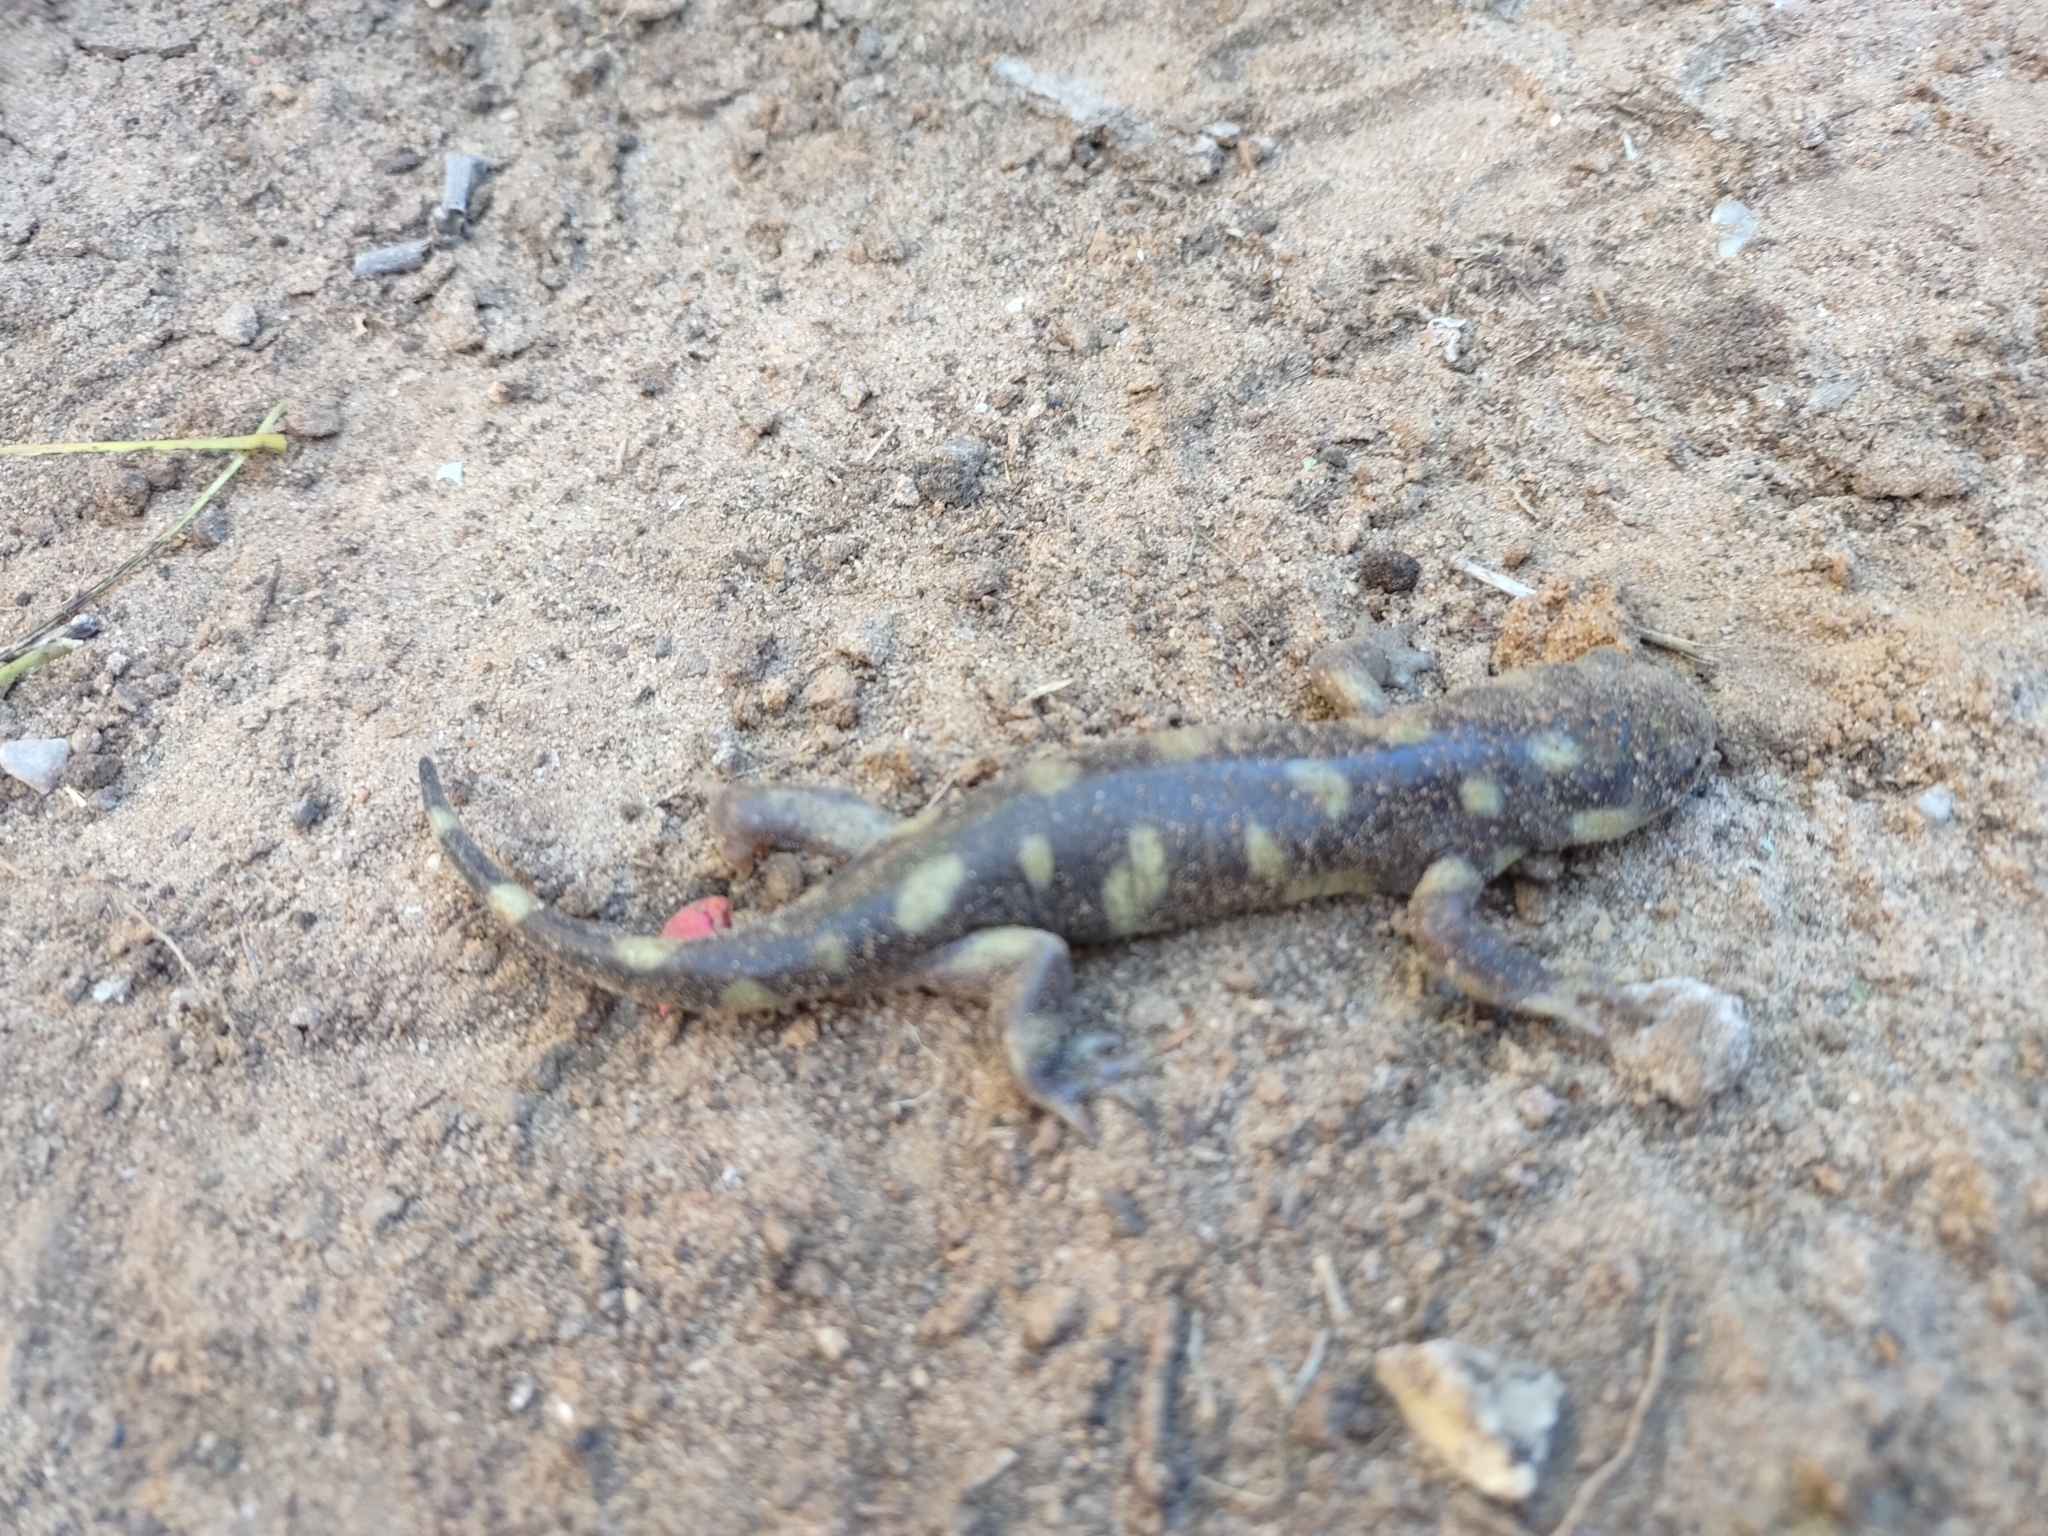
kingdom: Animalia
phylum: Chordata
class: Amphibia
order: Caudata
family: Ambystomatidae
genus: Ambystoma
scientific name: Ambystoma mavortium
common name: Western tiger salamander
